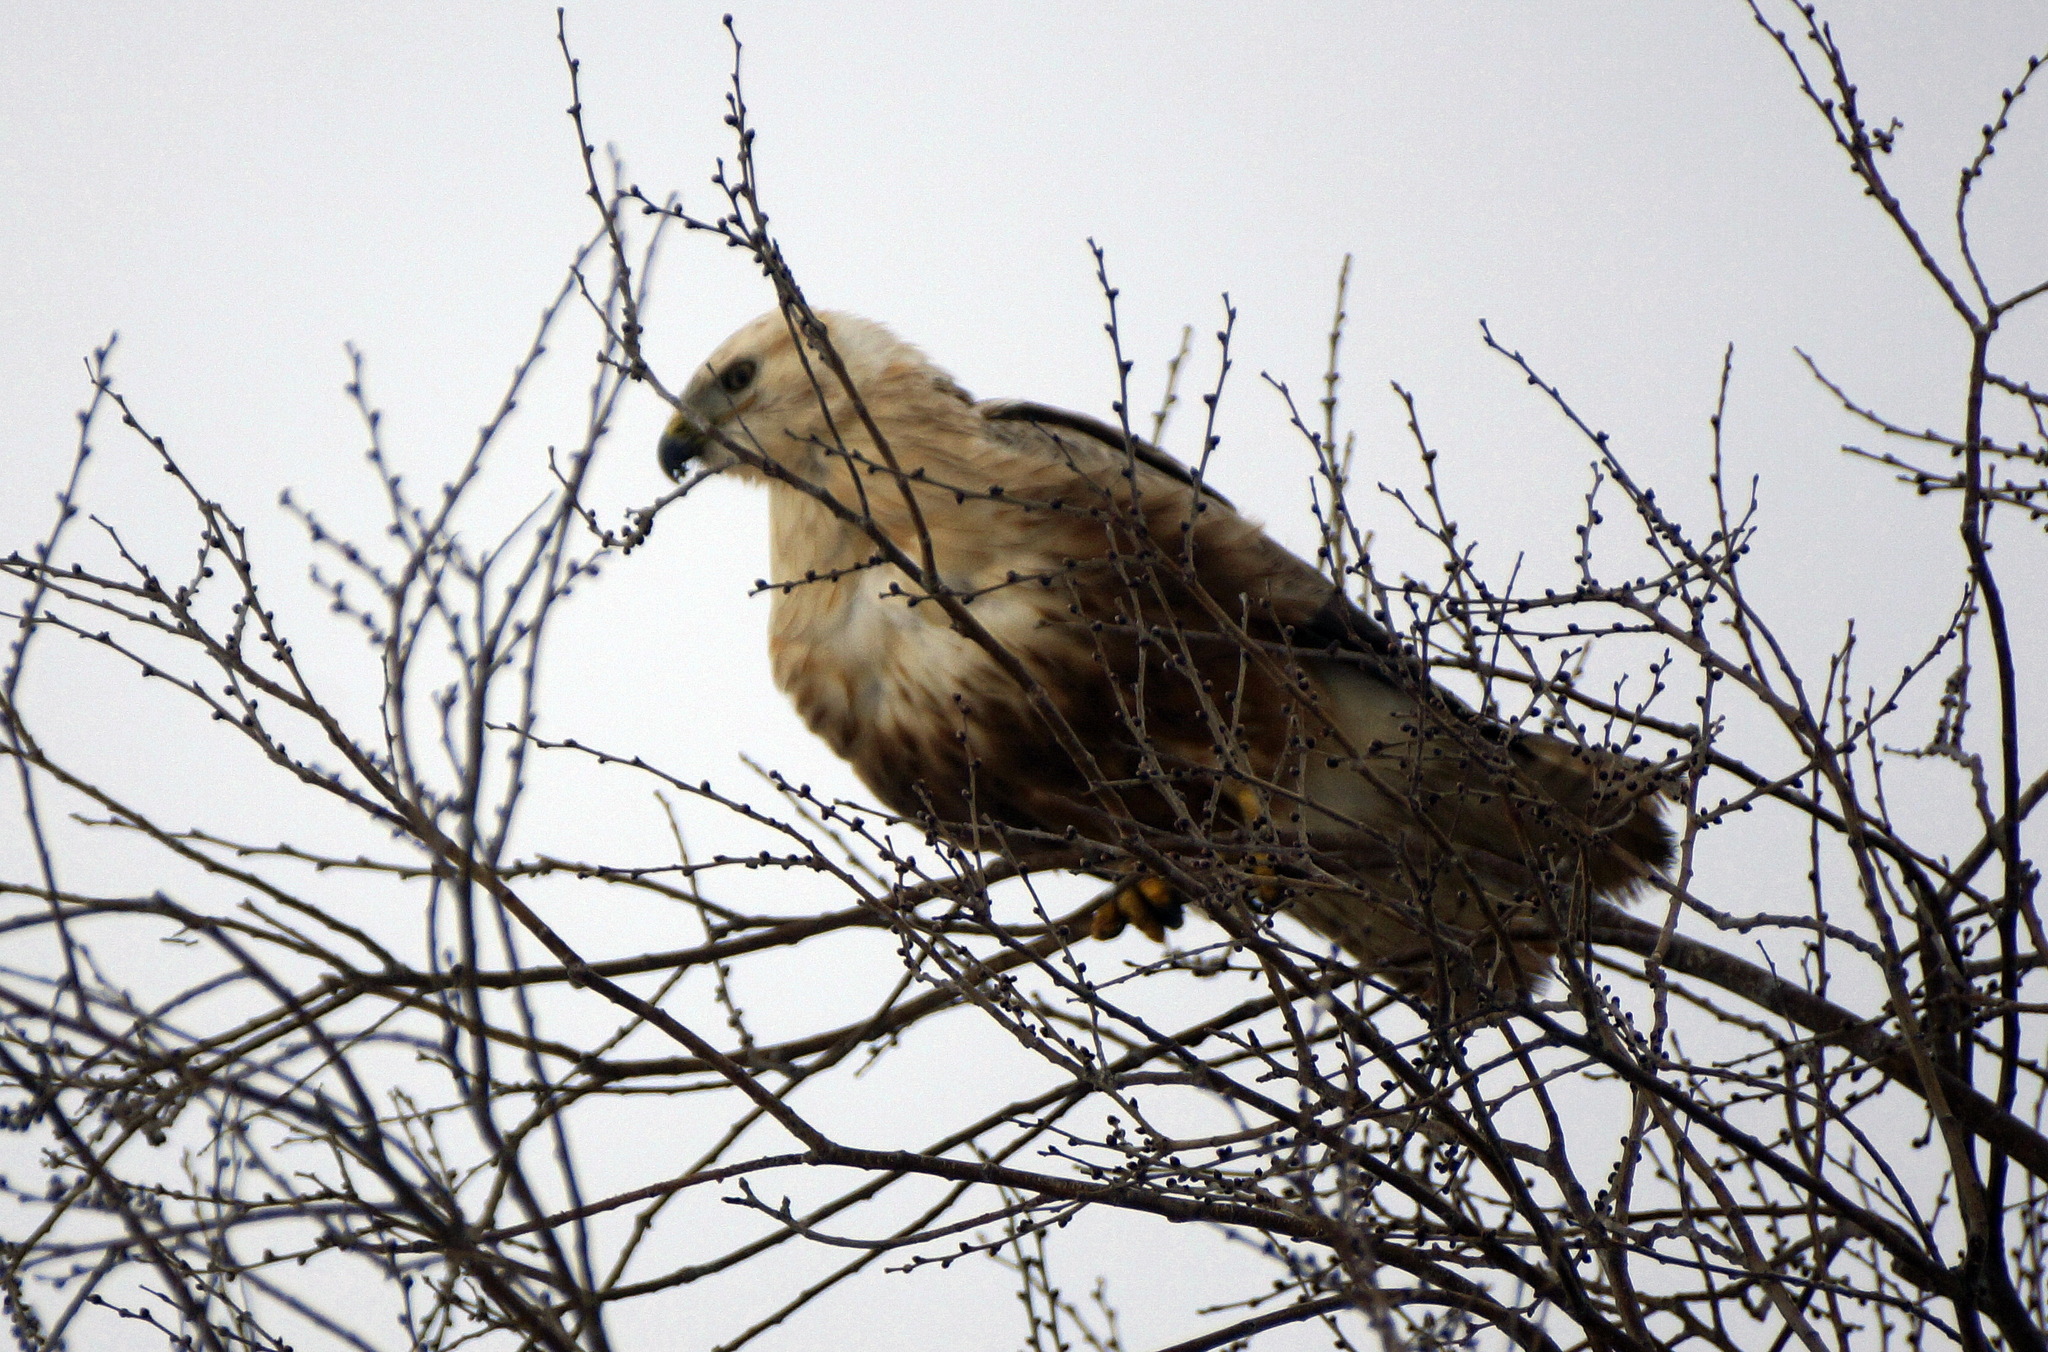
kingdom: Animalia
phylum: Chordata
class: Aves
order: Accipitriformes
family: Accipitridae
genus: Buteo
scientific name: Buteo rufinus
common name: Long-legged buzzard
